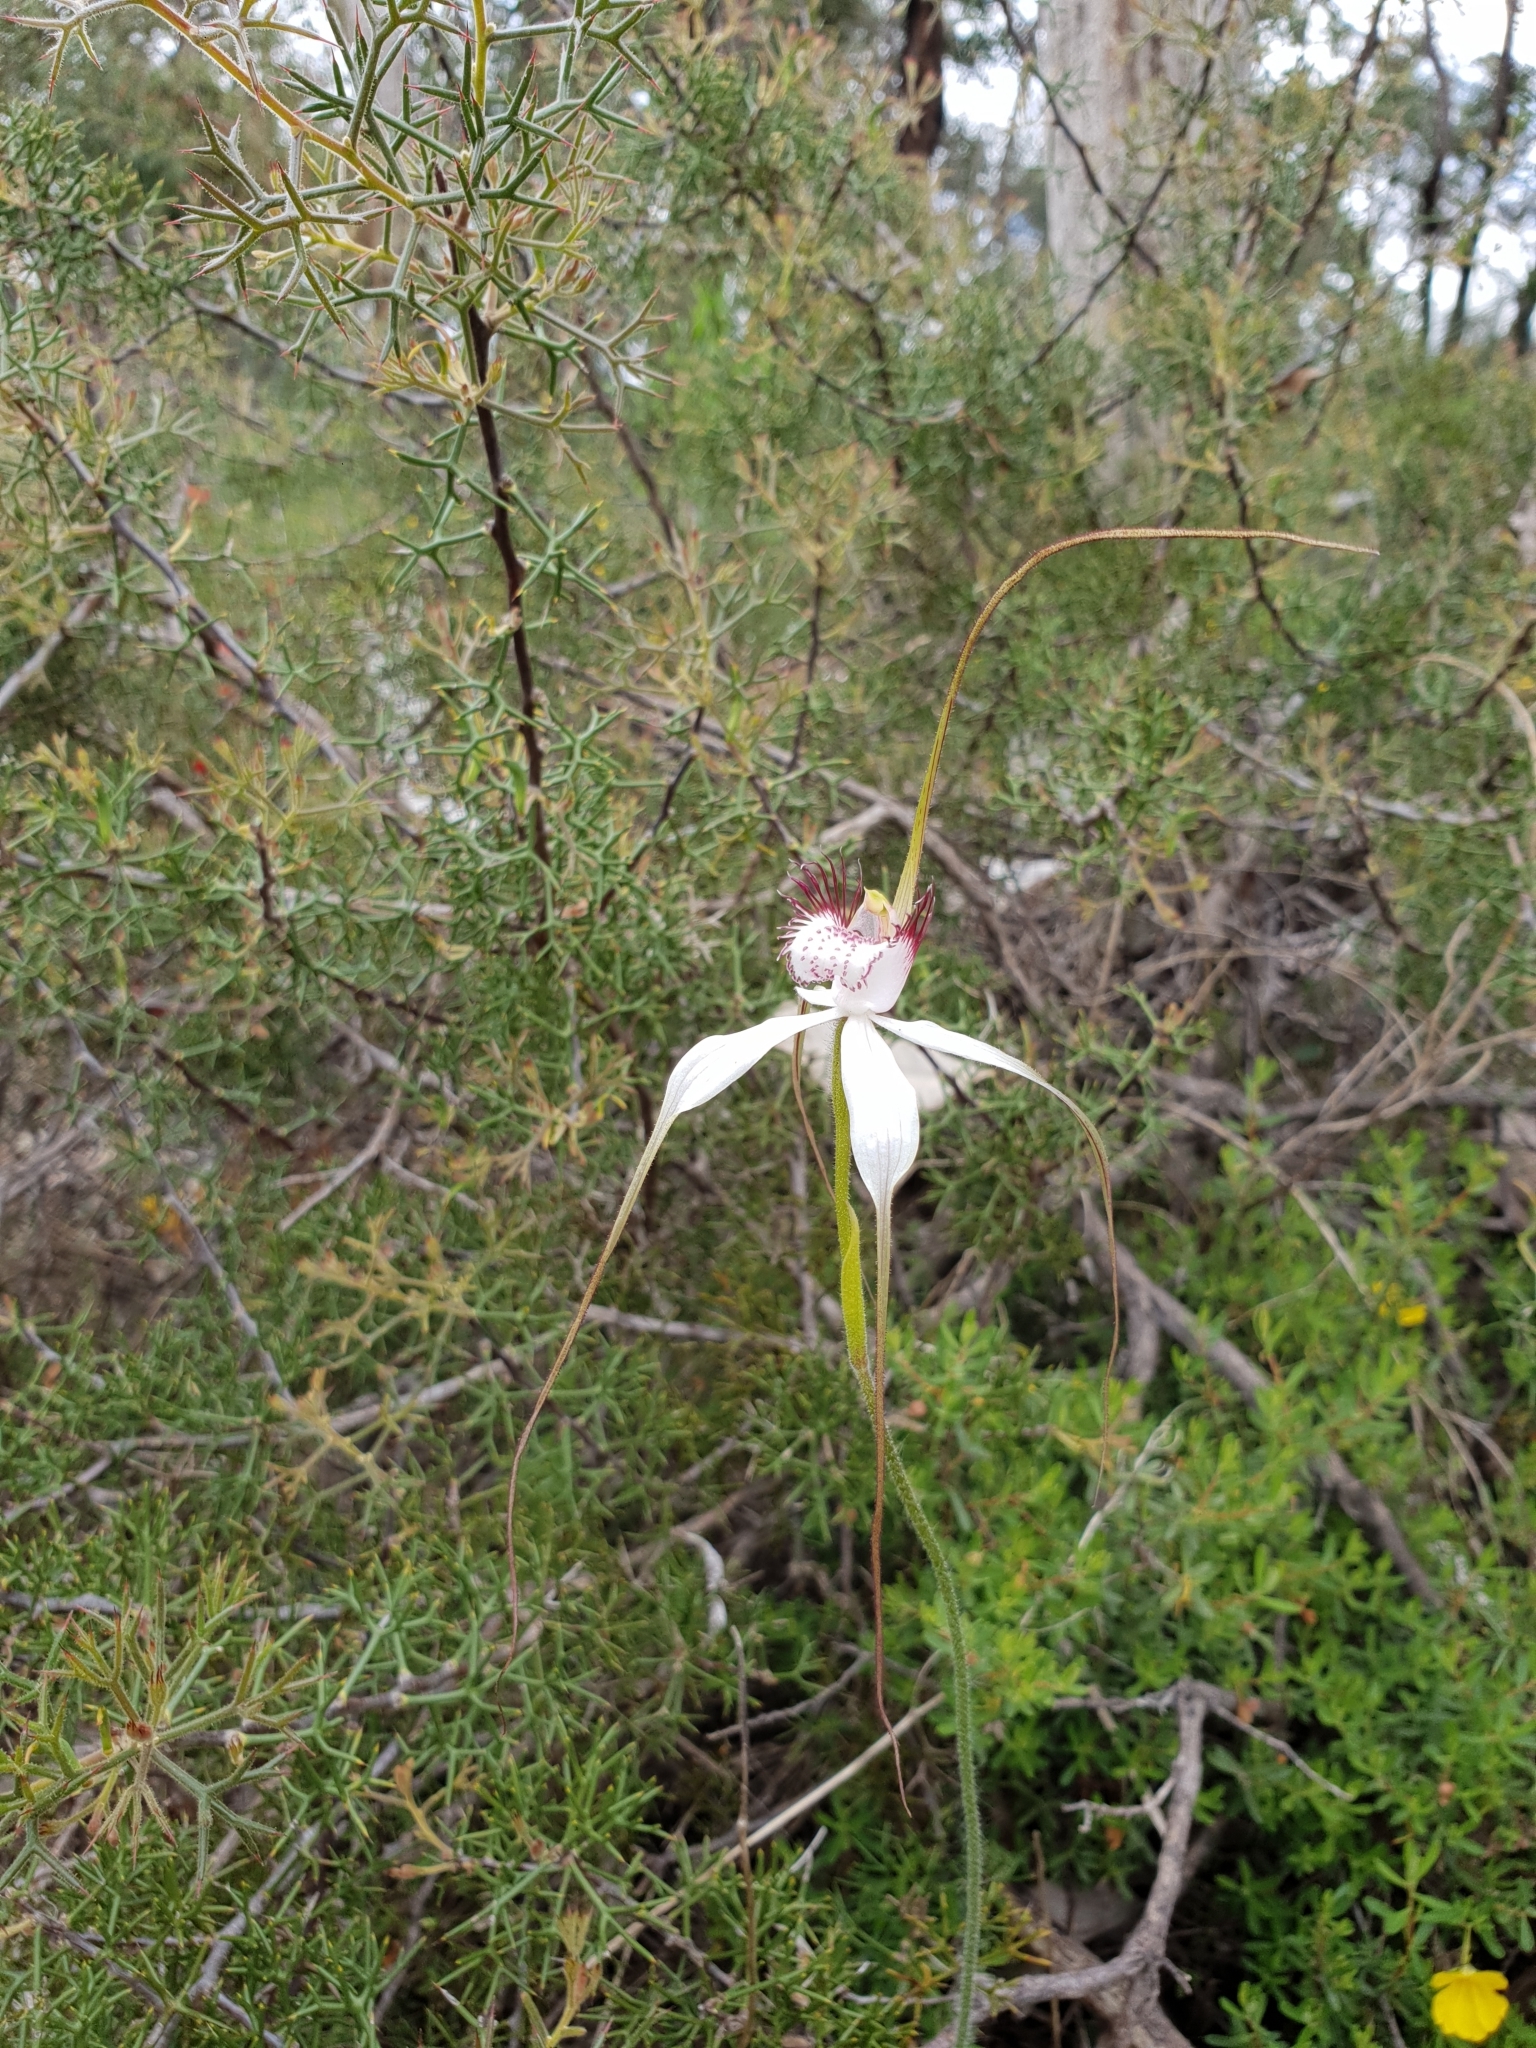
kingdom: Plantae
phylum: Tracheophyta
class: Liliopsida
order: Asparagales
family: Orchidaceae
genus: Caladenia
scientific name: Caladenia splendens
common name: Splendid spider orchid
